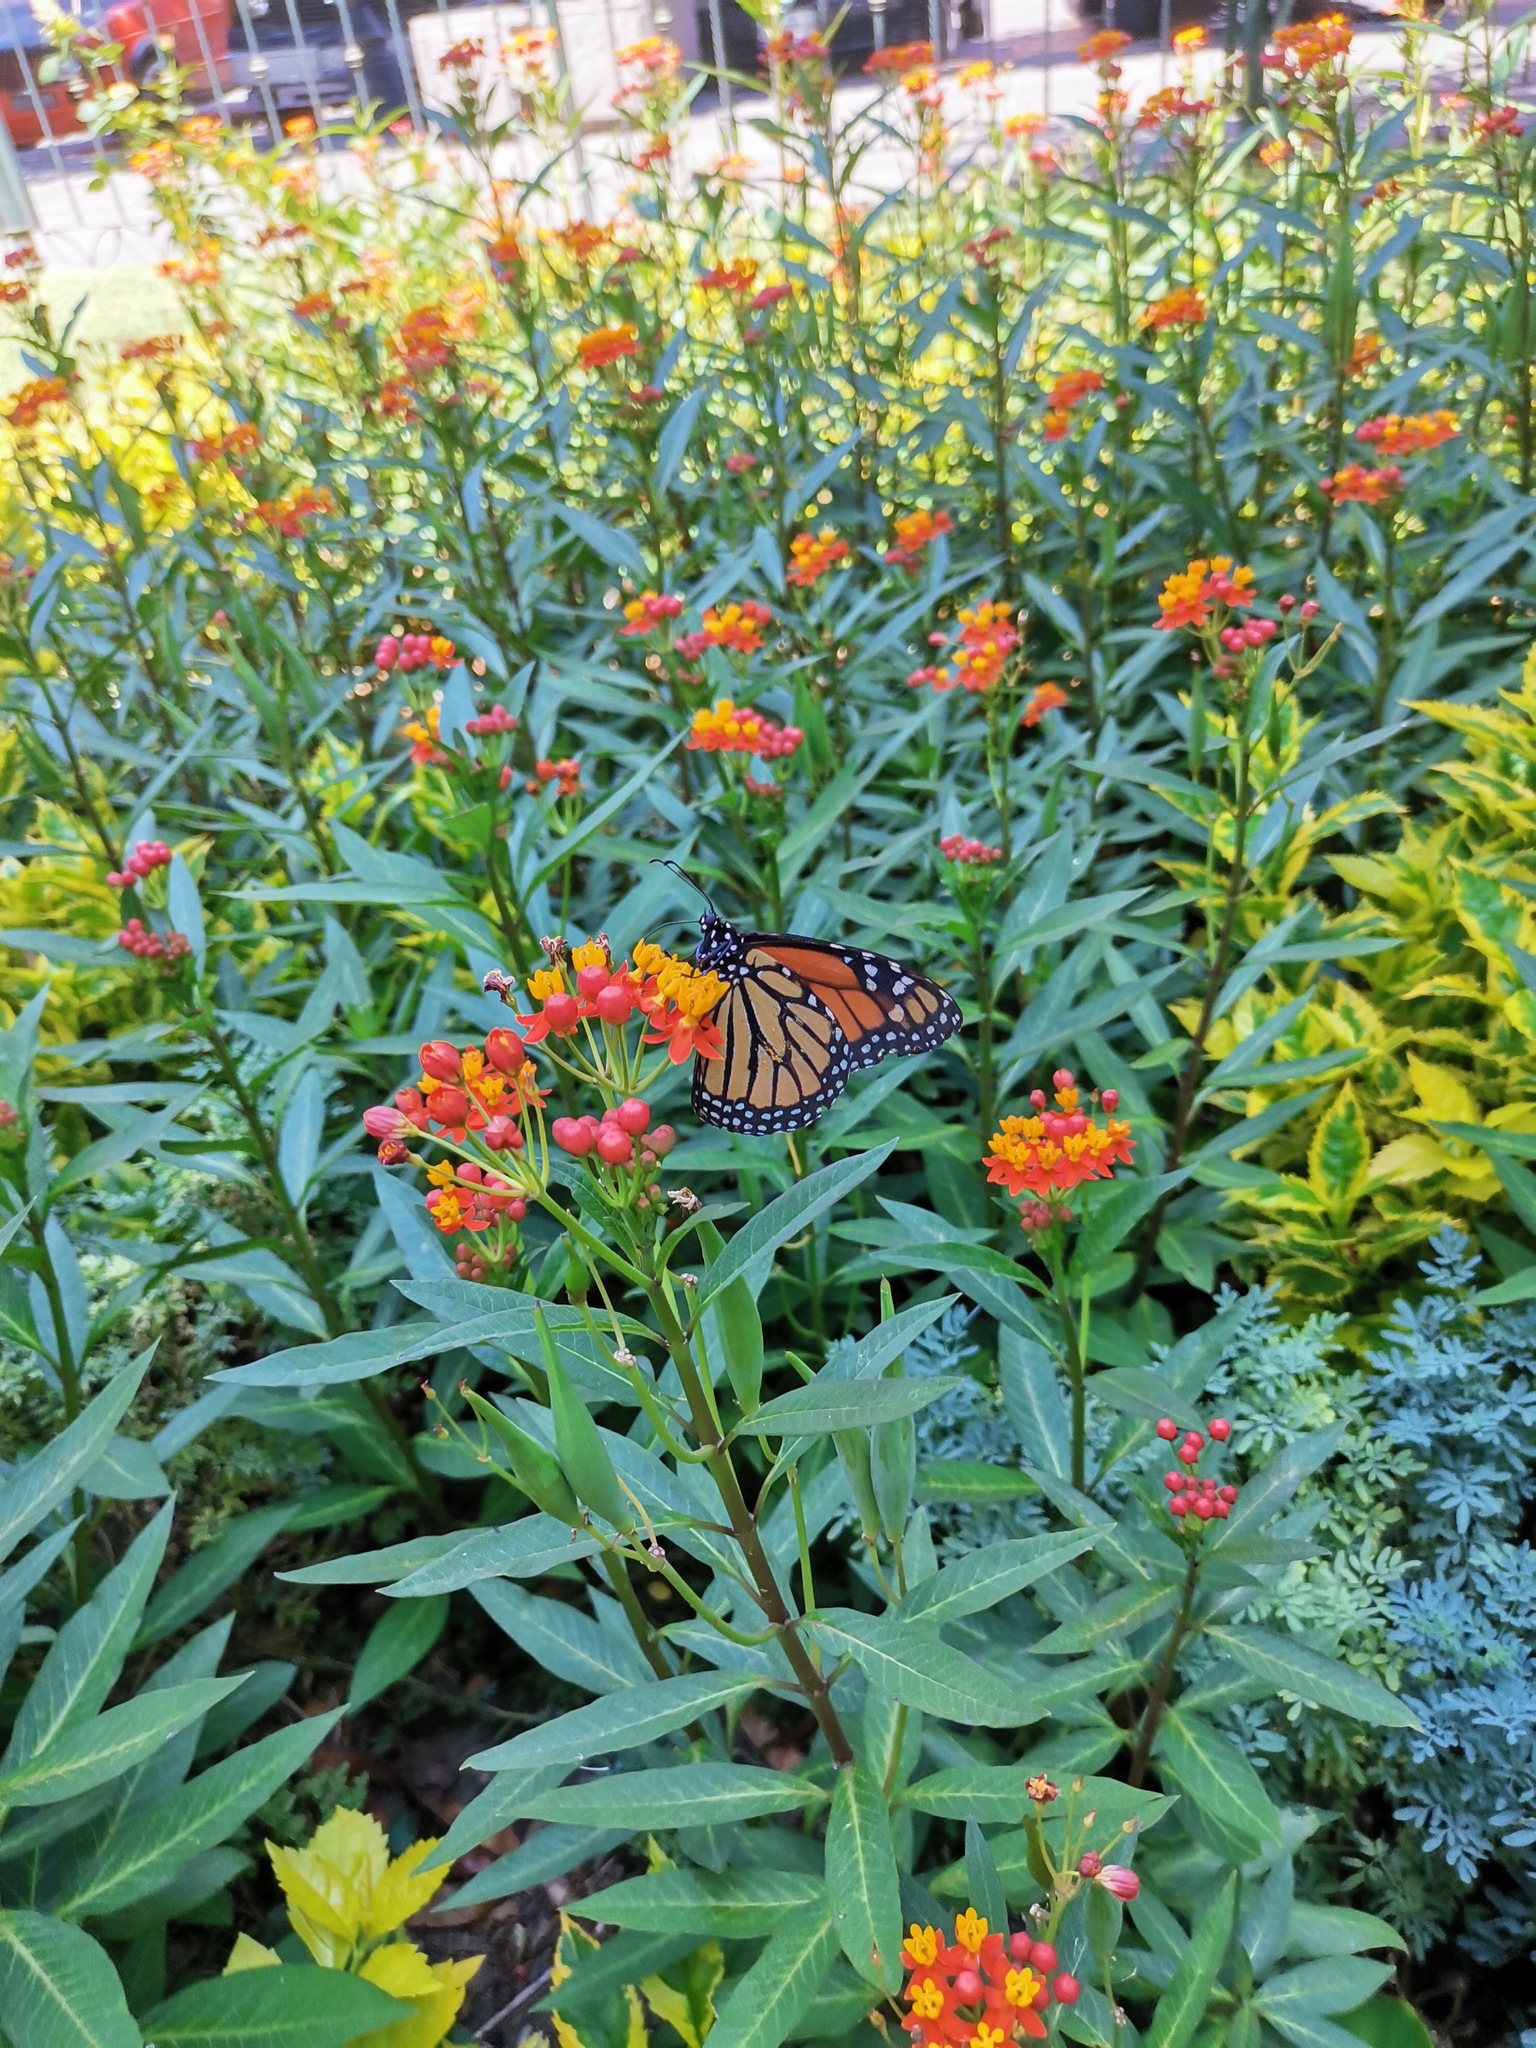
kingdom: Animalia
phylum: Arthropoda
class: Insecta
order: Lepidoptera
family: Nymphalidae
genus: Danaus
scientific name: Danaus plexippus
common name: Monarch
